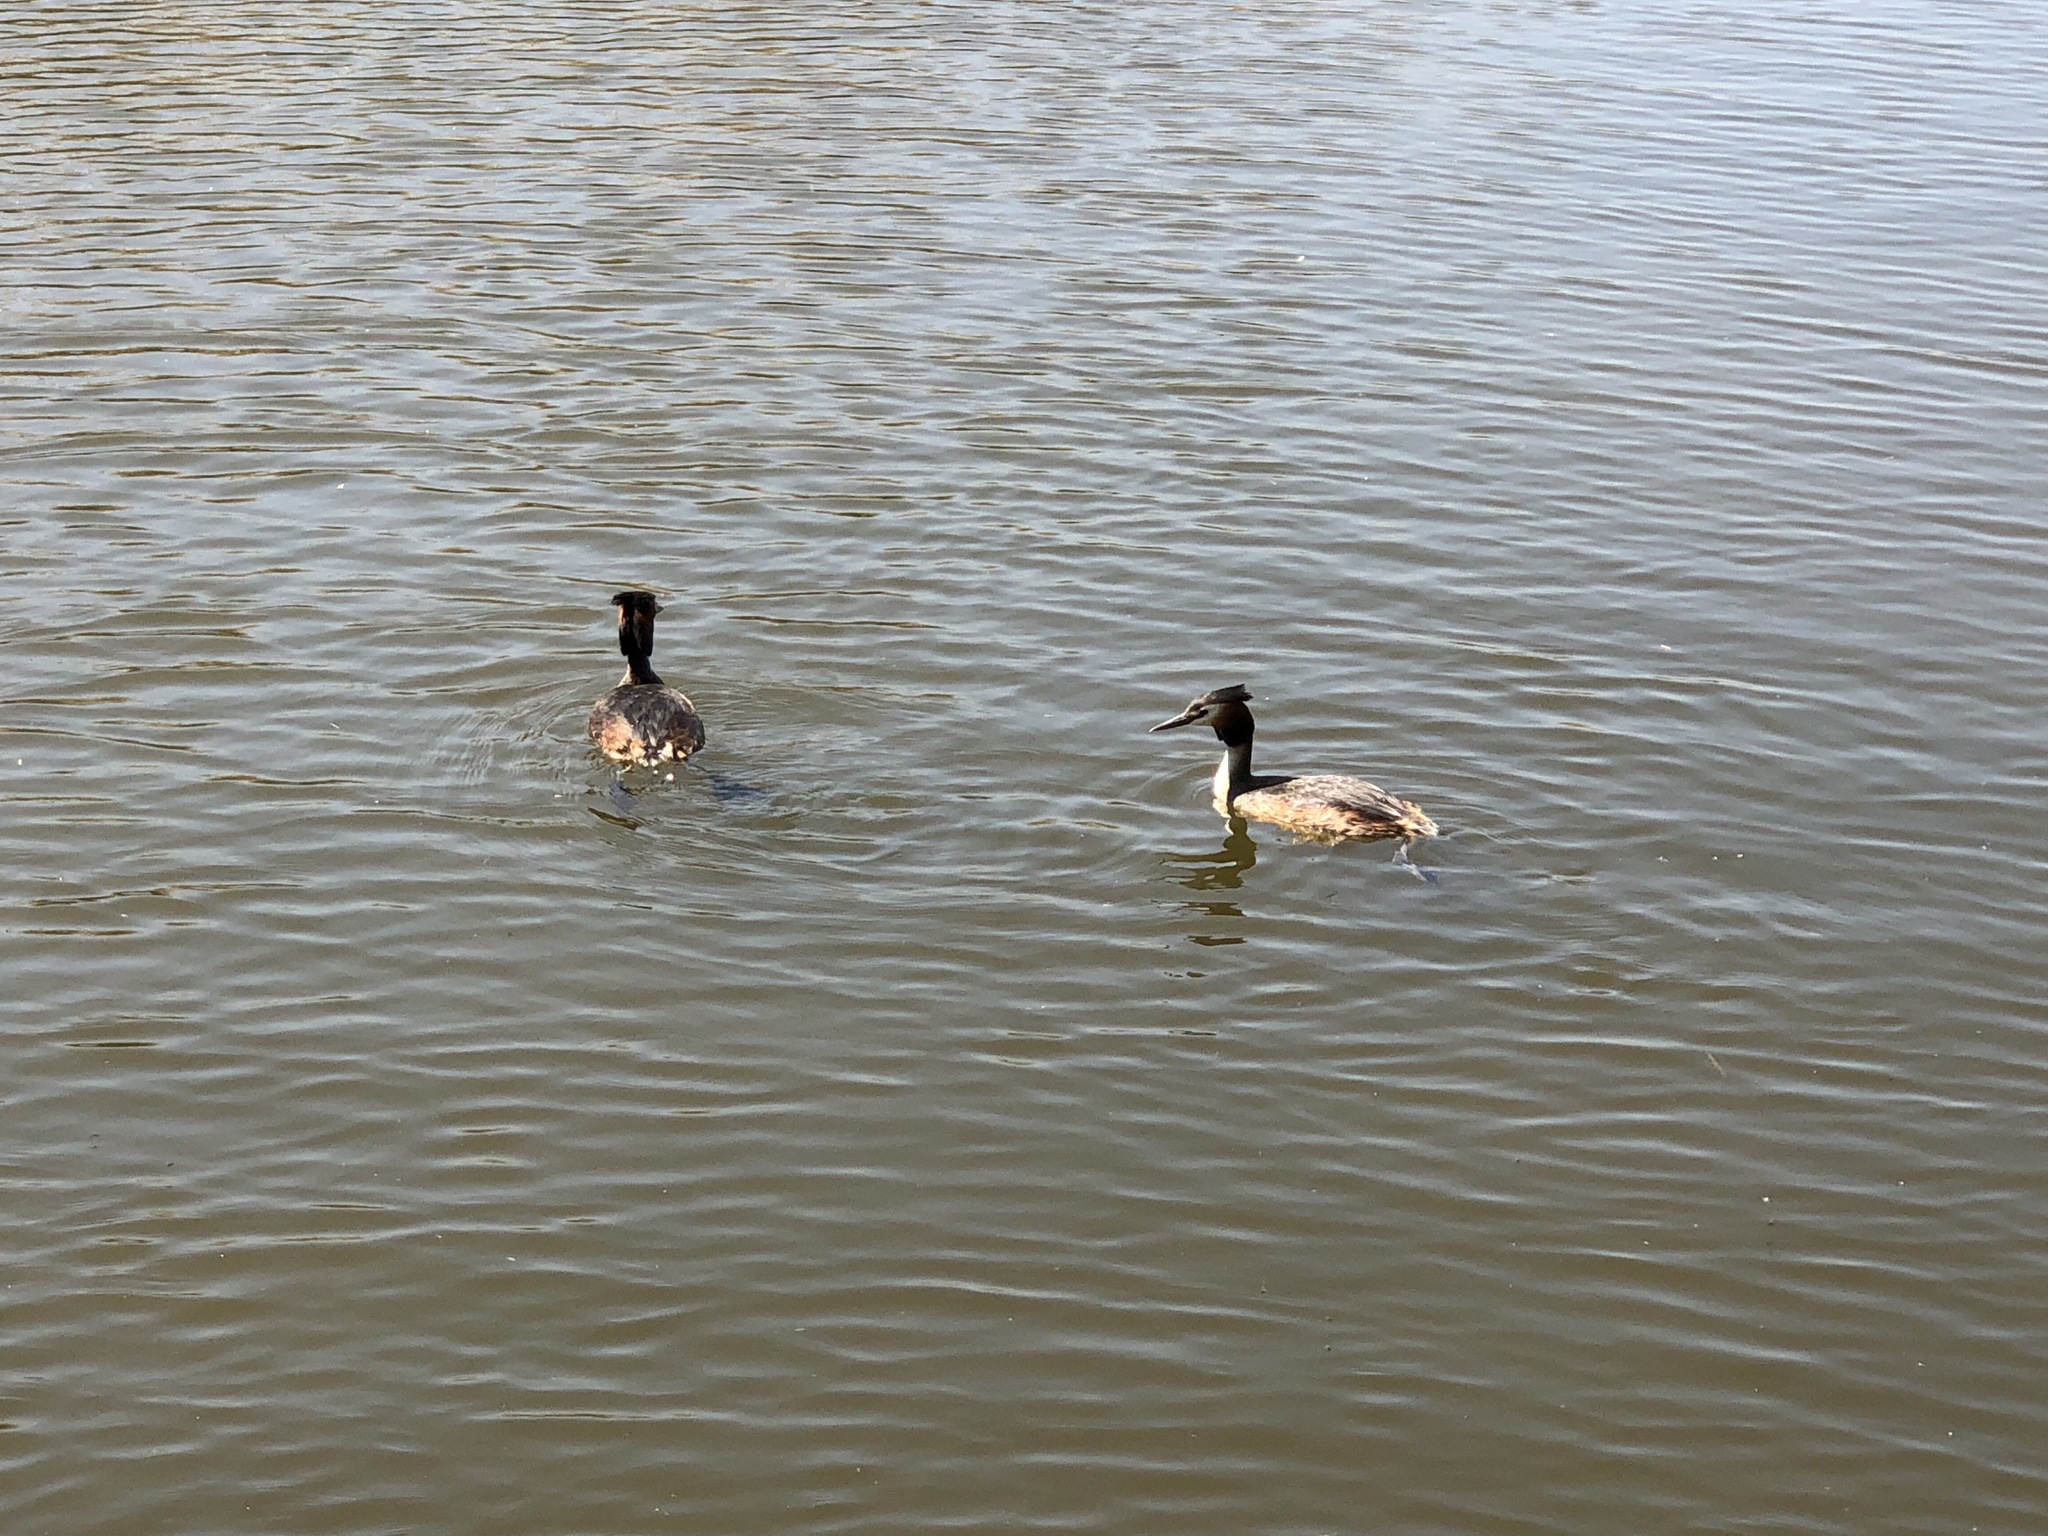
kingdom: Animalia
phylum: Chordata
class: Aves
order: Podicipediformes
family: Podicipedidae
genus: Podiceps
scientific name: Podiceps cristatus
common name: Great crested grebe
